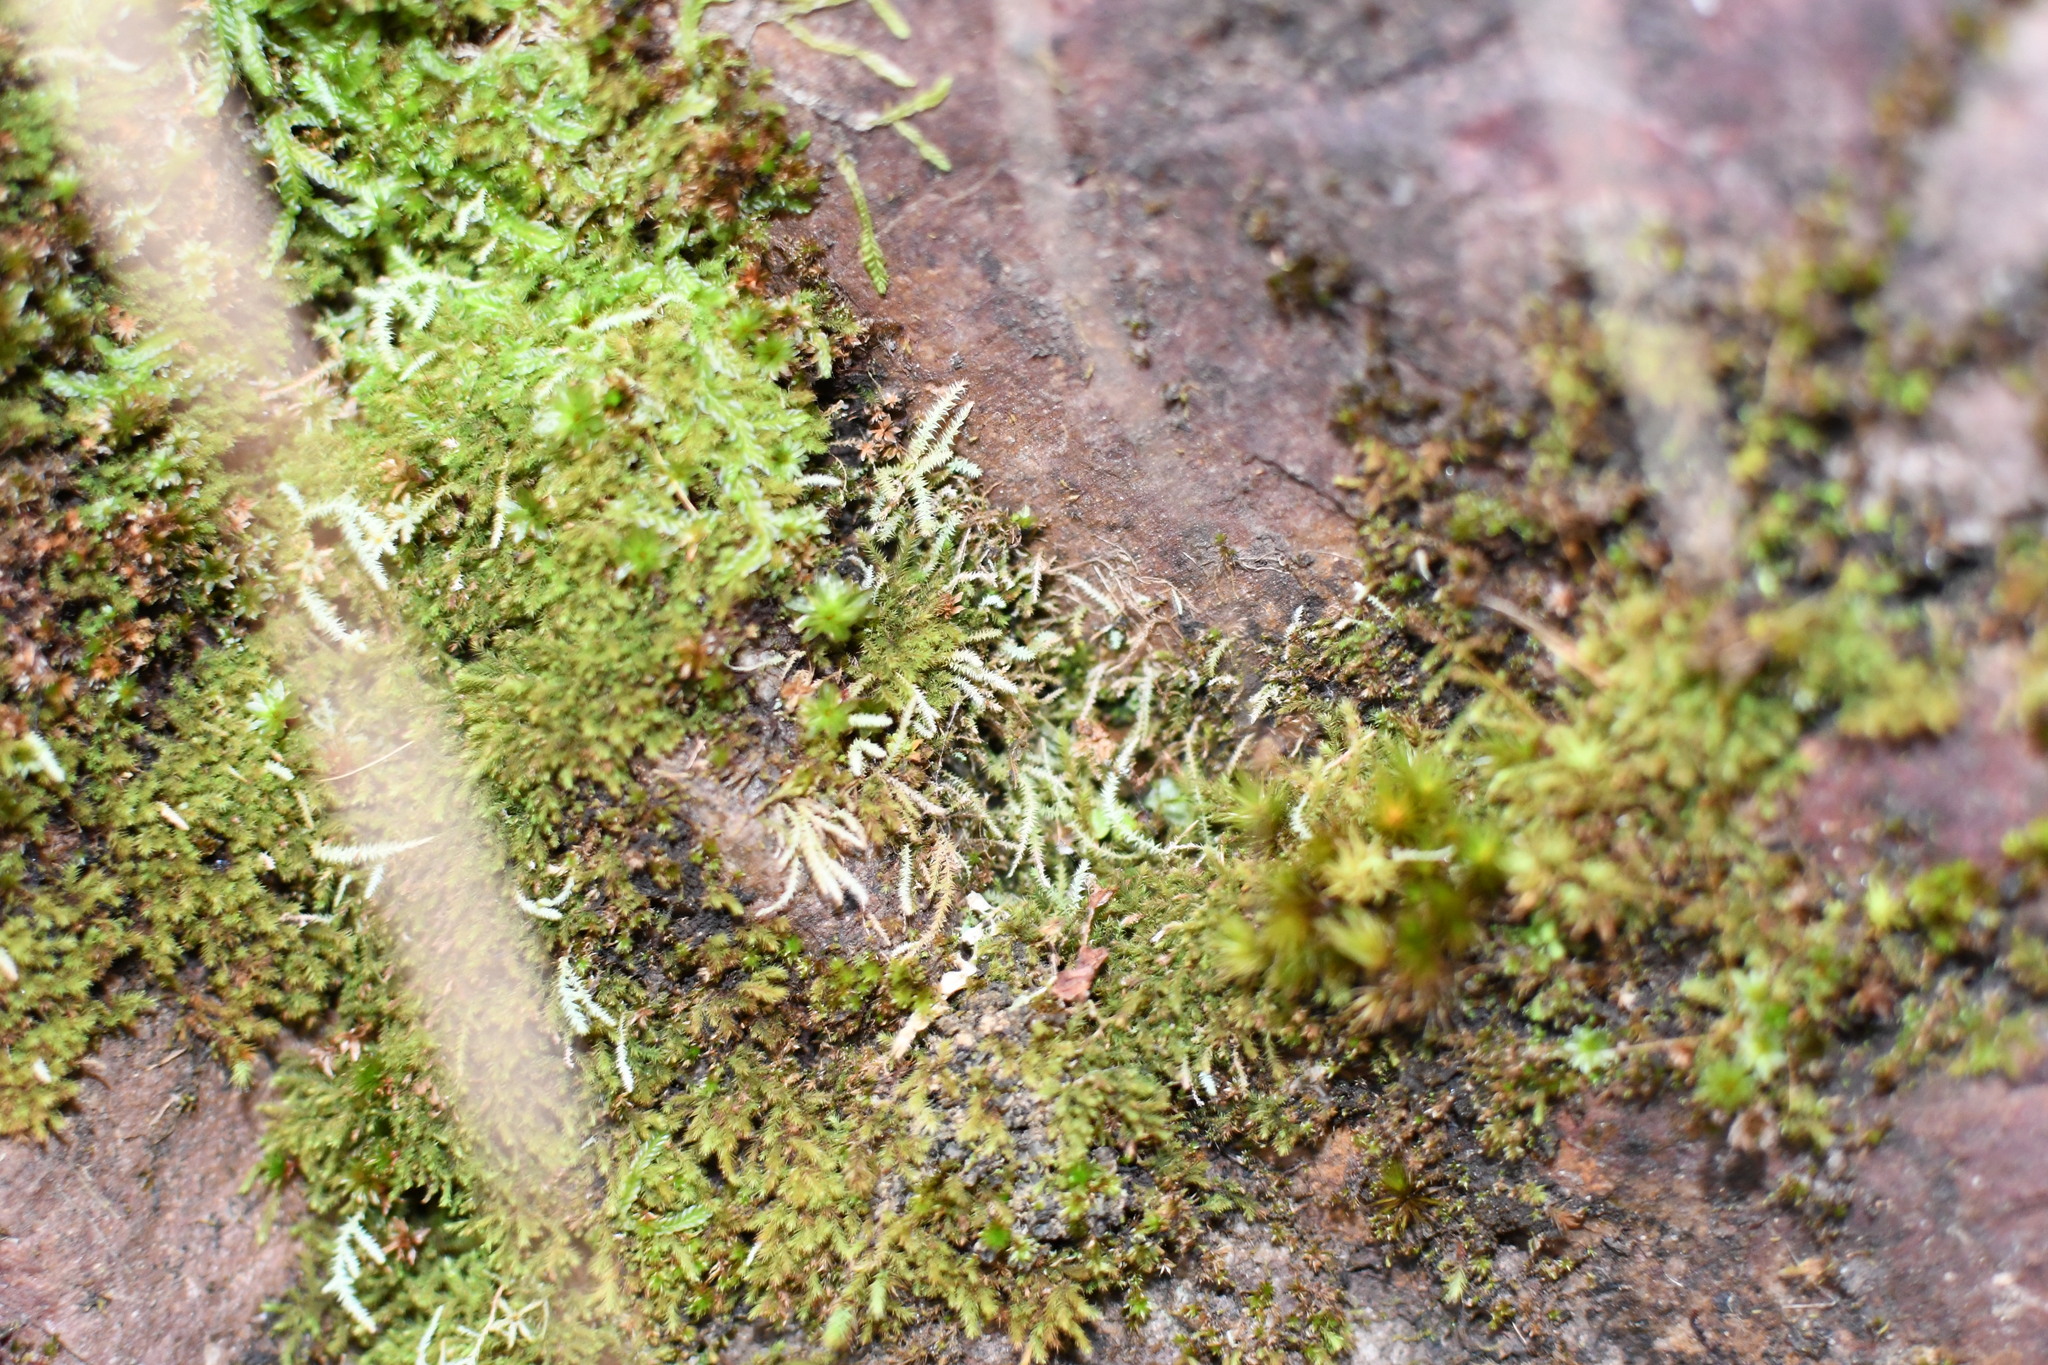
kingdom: Plantae
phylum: Bryophyta
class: Bryopsida
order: Bartramiales
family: Bartramiaceae
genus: Philonotis
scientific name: Philonotis scabrifolia
